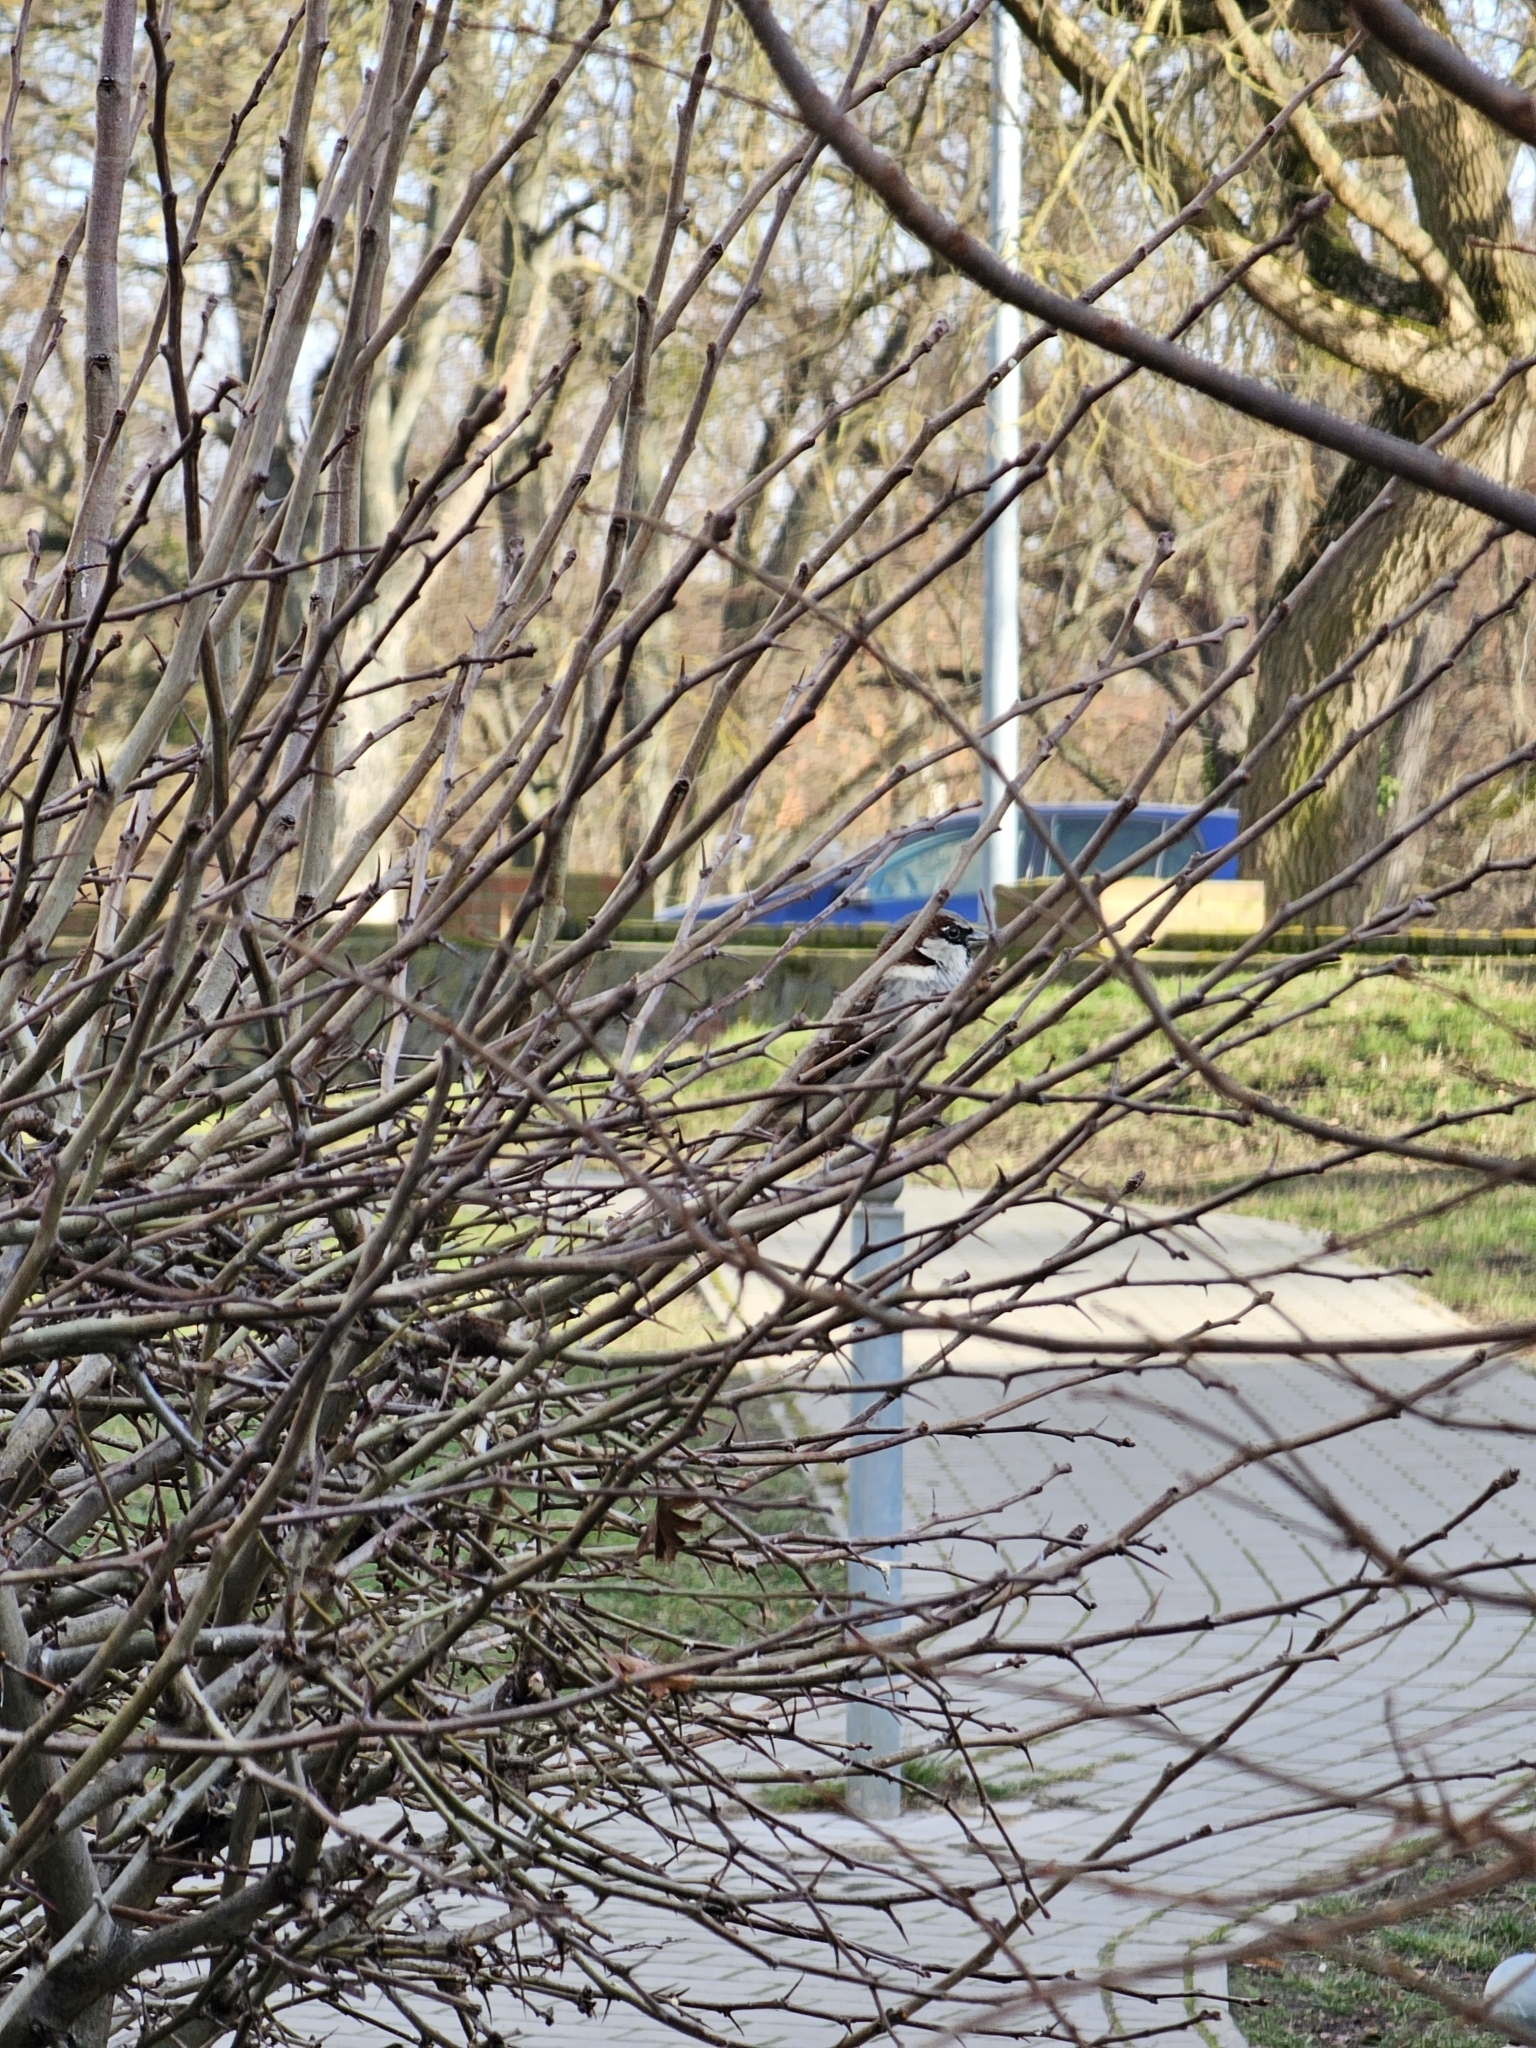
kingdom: Animalia
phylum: Chordata
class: Aves
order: Passeriformes
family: Passeridae
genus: Passer
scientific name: Passer domesticus
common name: House sparrow
